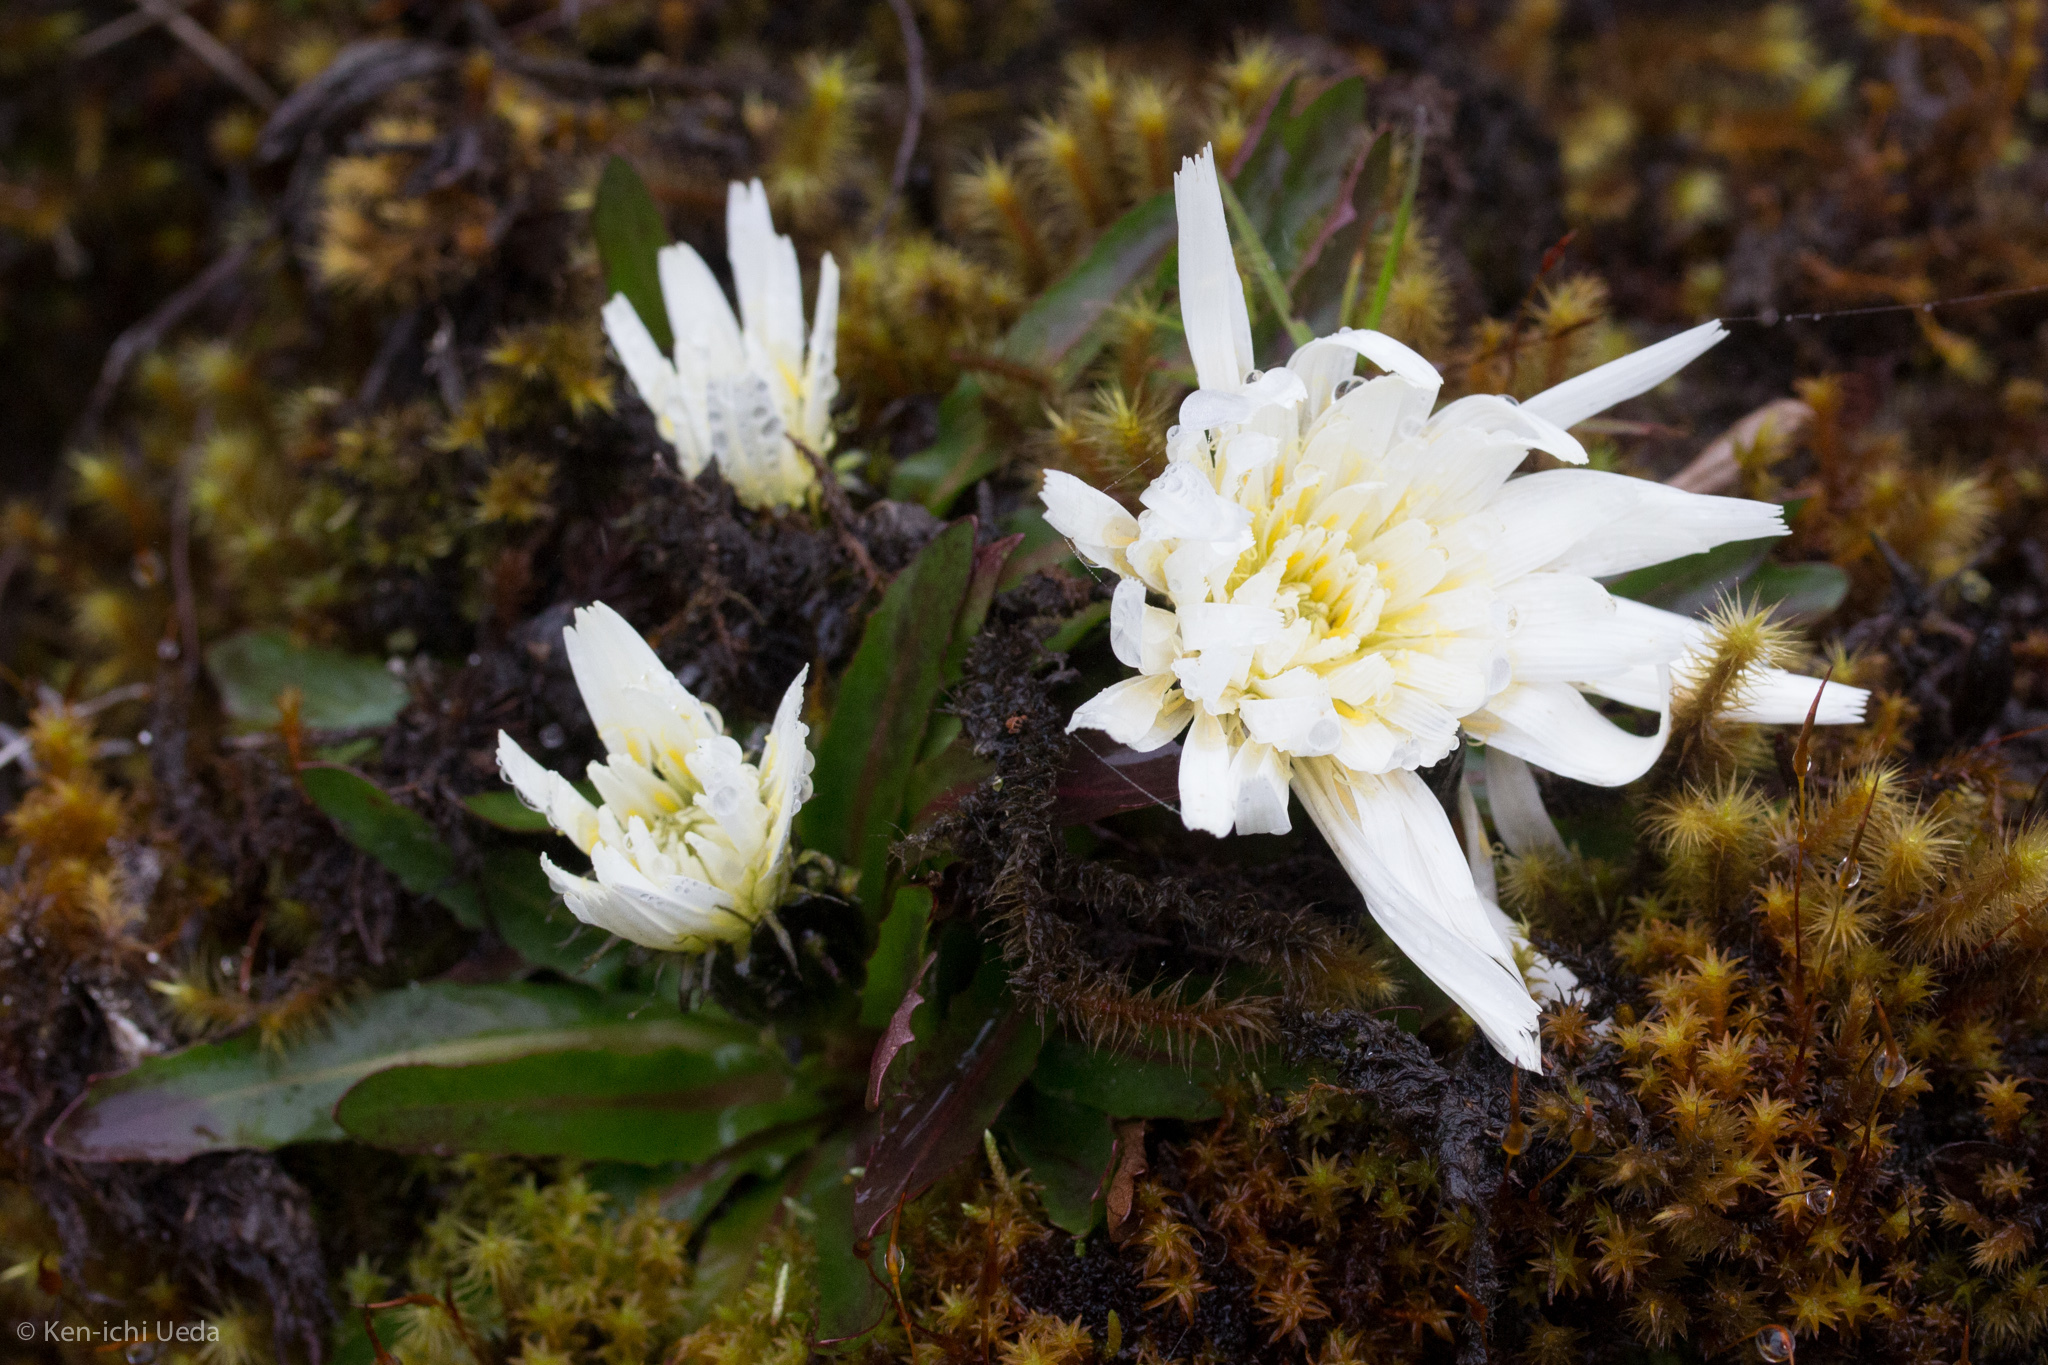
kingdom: Plantae
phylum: Tracheophyta
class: Magnoliopsida
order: Asterales
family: Asteraceae
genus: Hypochaeris
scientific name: Hypochaeris sessiliflora
